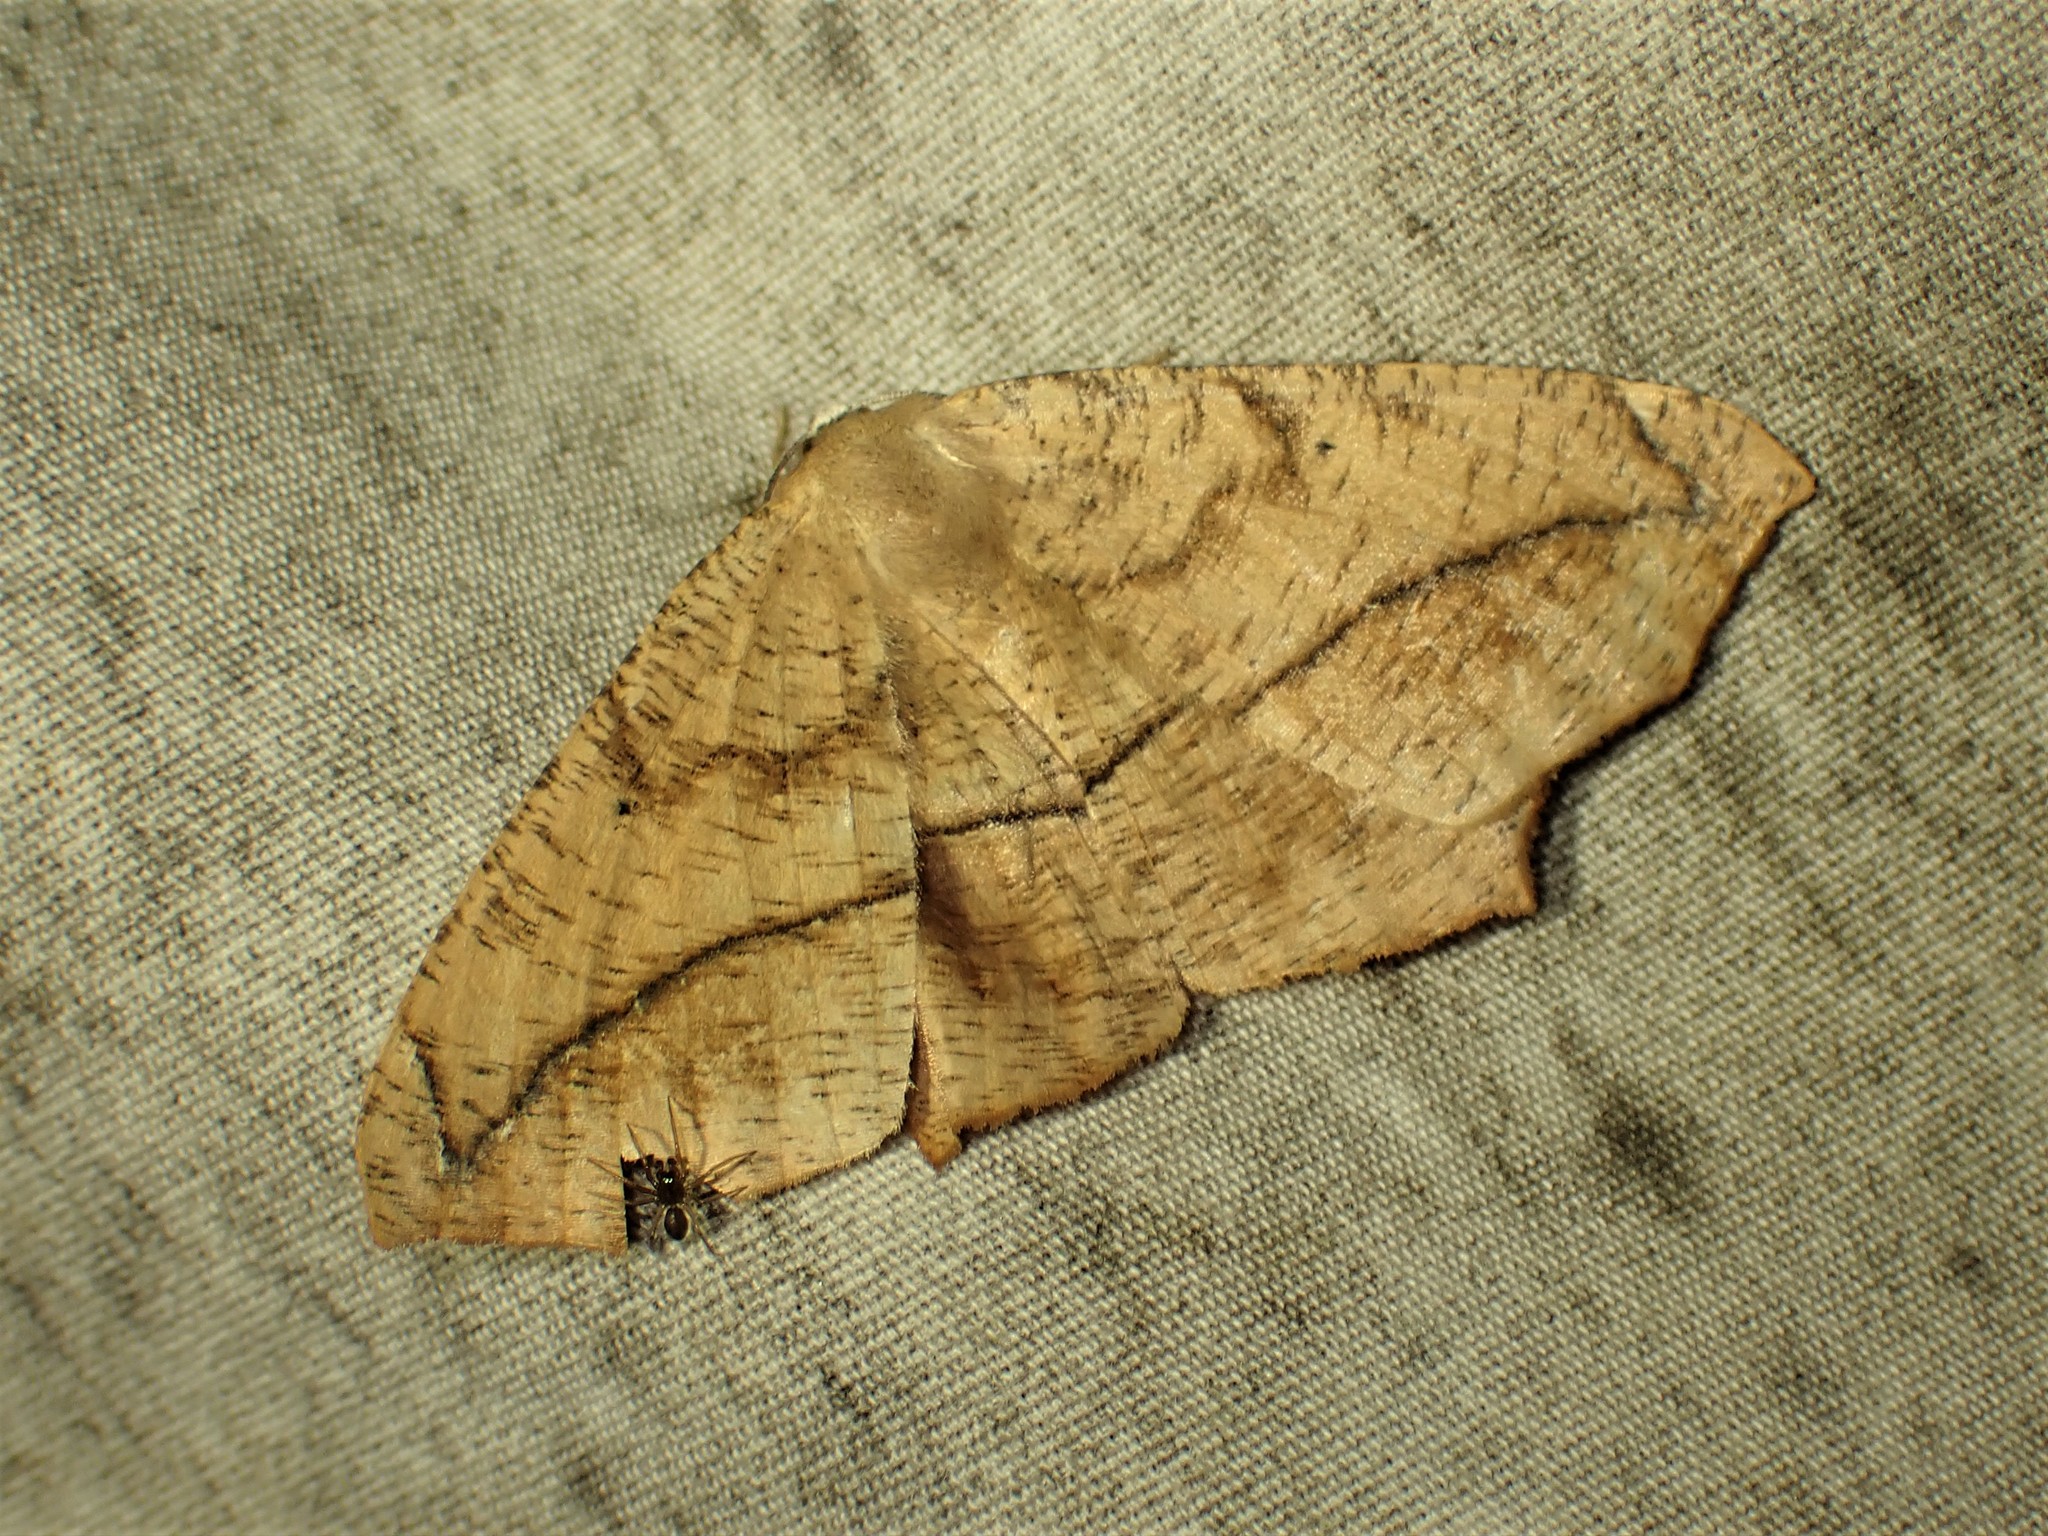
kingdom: Animalia
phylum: Arthropoda
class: Insecta
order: Lepidoptera
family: Geometridae
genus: Prochoerodes
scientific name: Prochoerodes lineola
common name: Large maple spanworm
